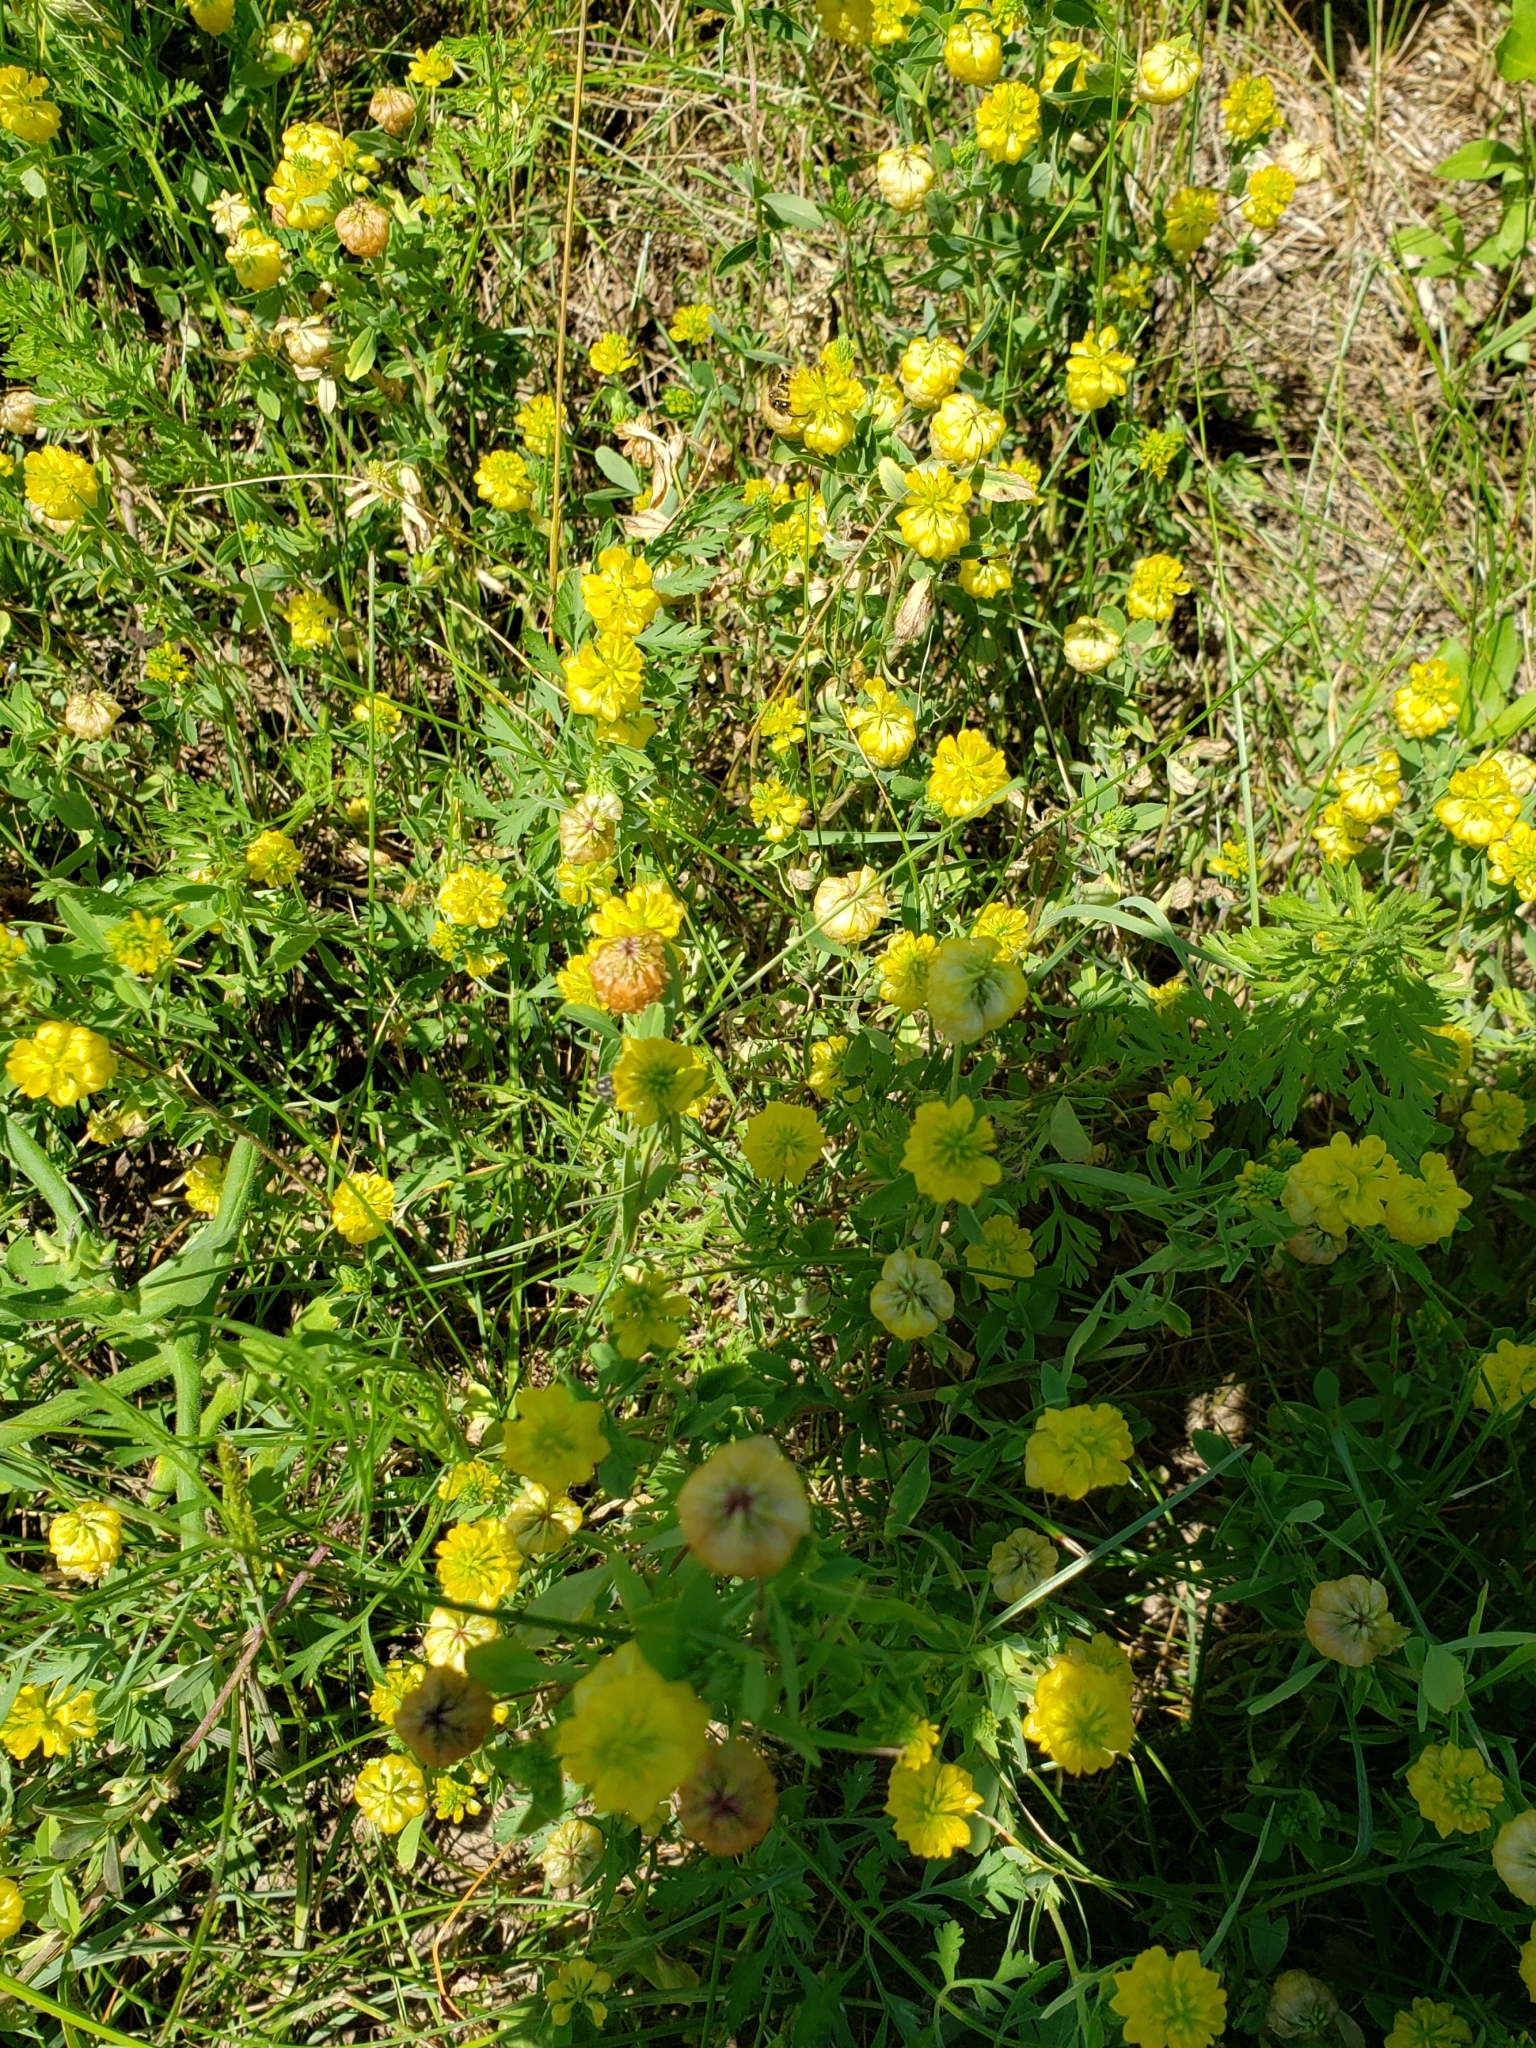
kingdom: Plantae
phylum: Tracheophyta
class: Magnoliopsida
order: Fabales
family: Fabaceae
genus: Trifolium
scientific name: Trifolium aureum
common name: Golden clover
